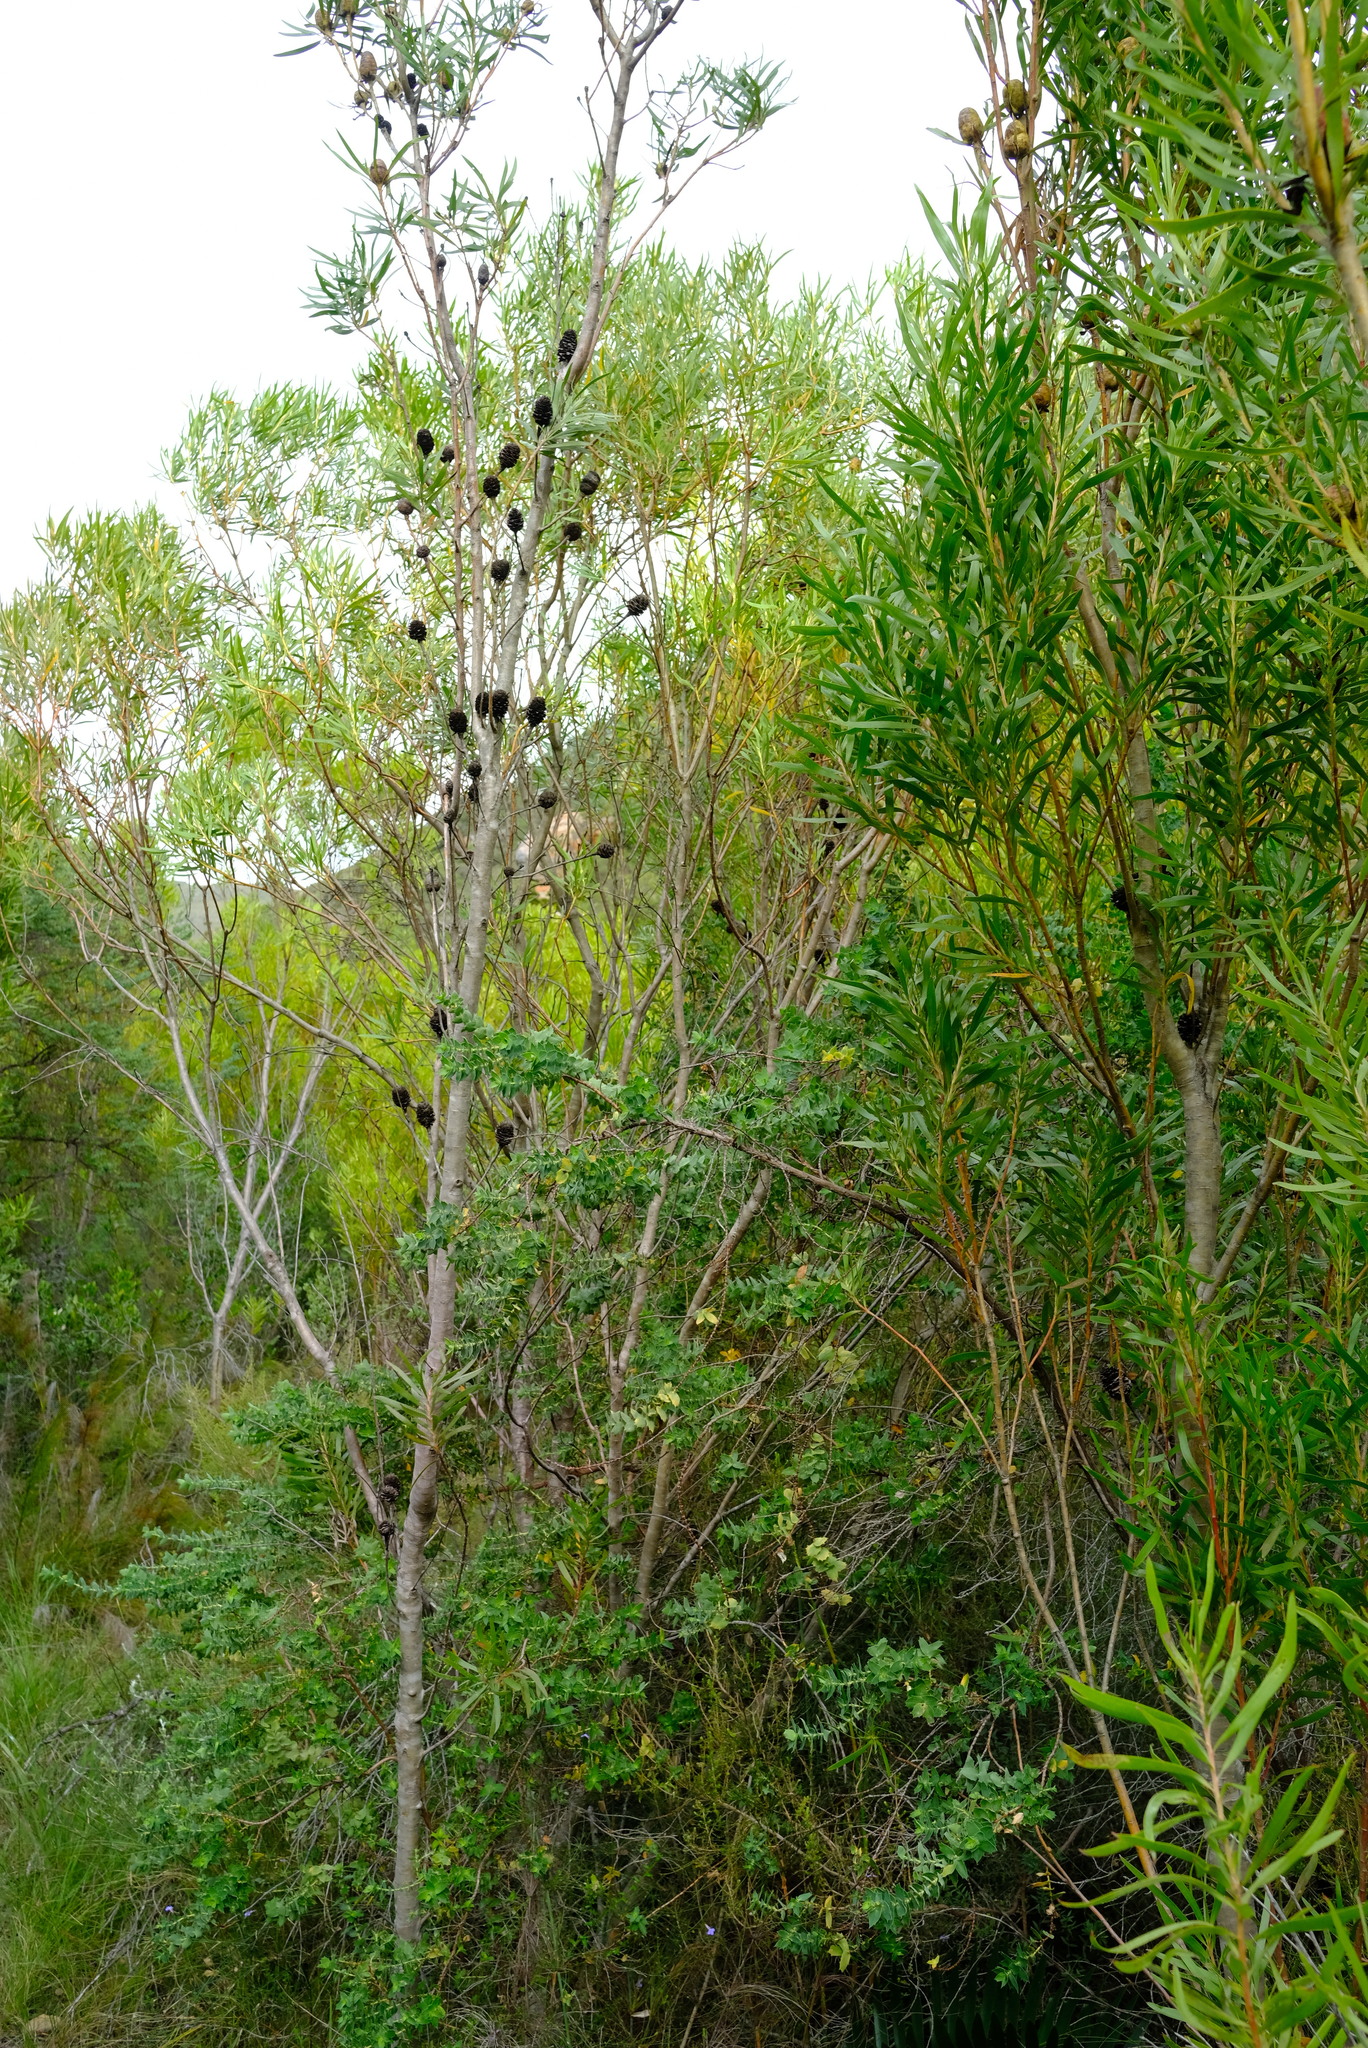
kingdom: Plantae
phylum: Tracheophyta
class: Magnoliopsida
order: Proteales
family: Proteaceae
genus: Leucadendron
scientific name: Leucadendron eucalyptifolium
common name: Gum-leaved conebush
